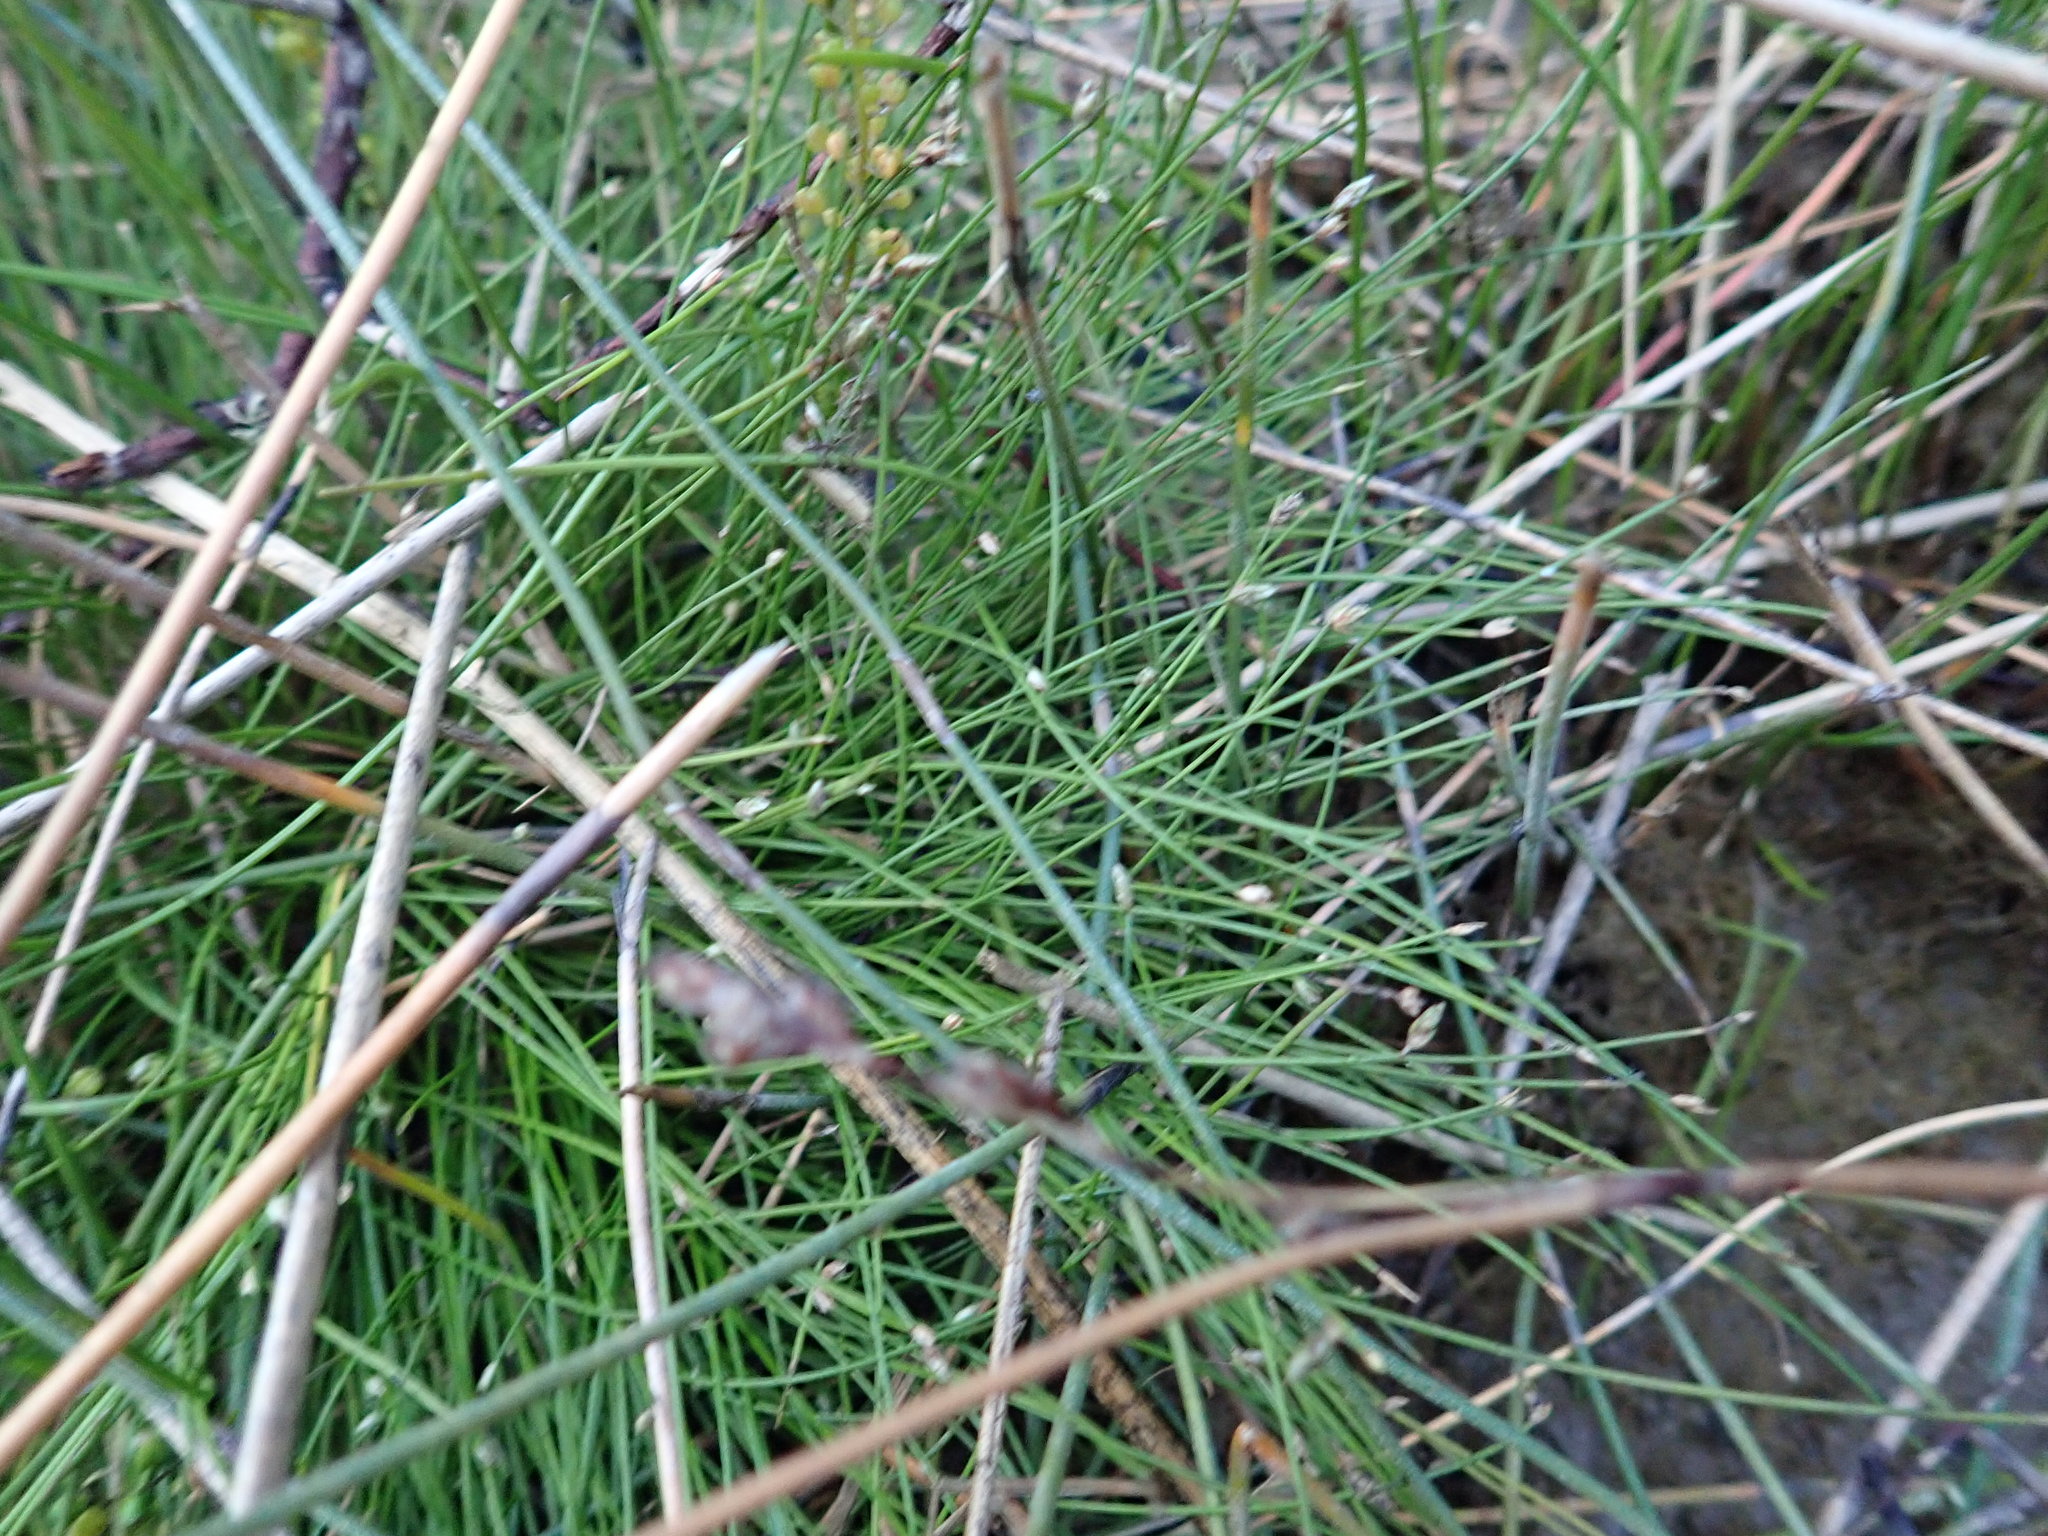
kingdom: Plantae
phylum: Tracheophyta
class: Liliopsida
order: Poales
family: Cyperaceae
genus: Isolepis
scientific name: Isolepis cernua
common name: Slender club-rush
